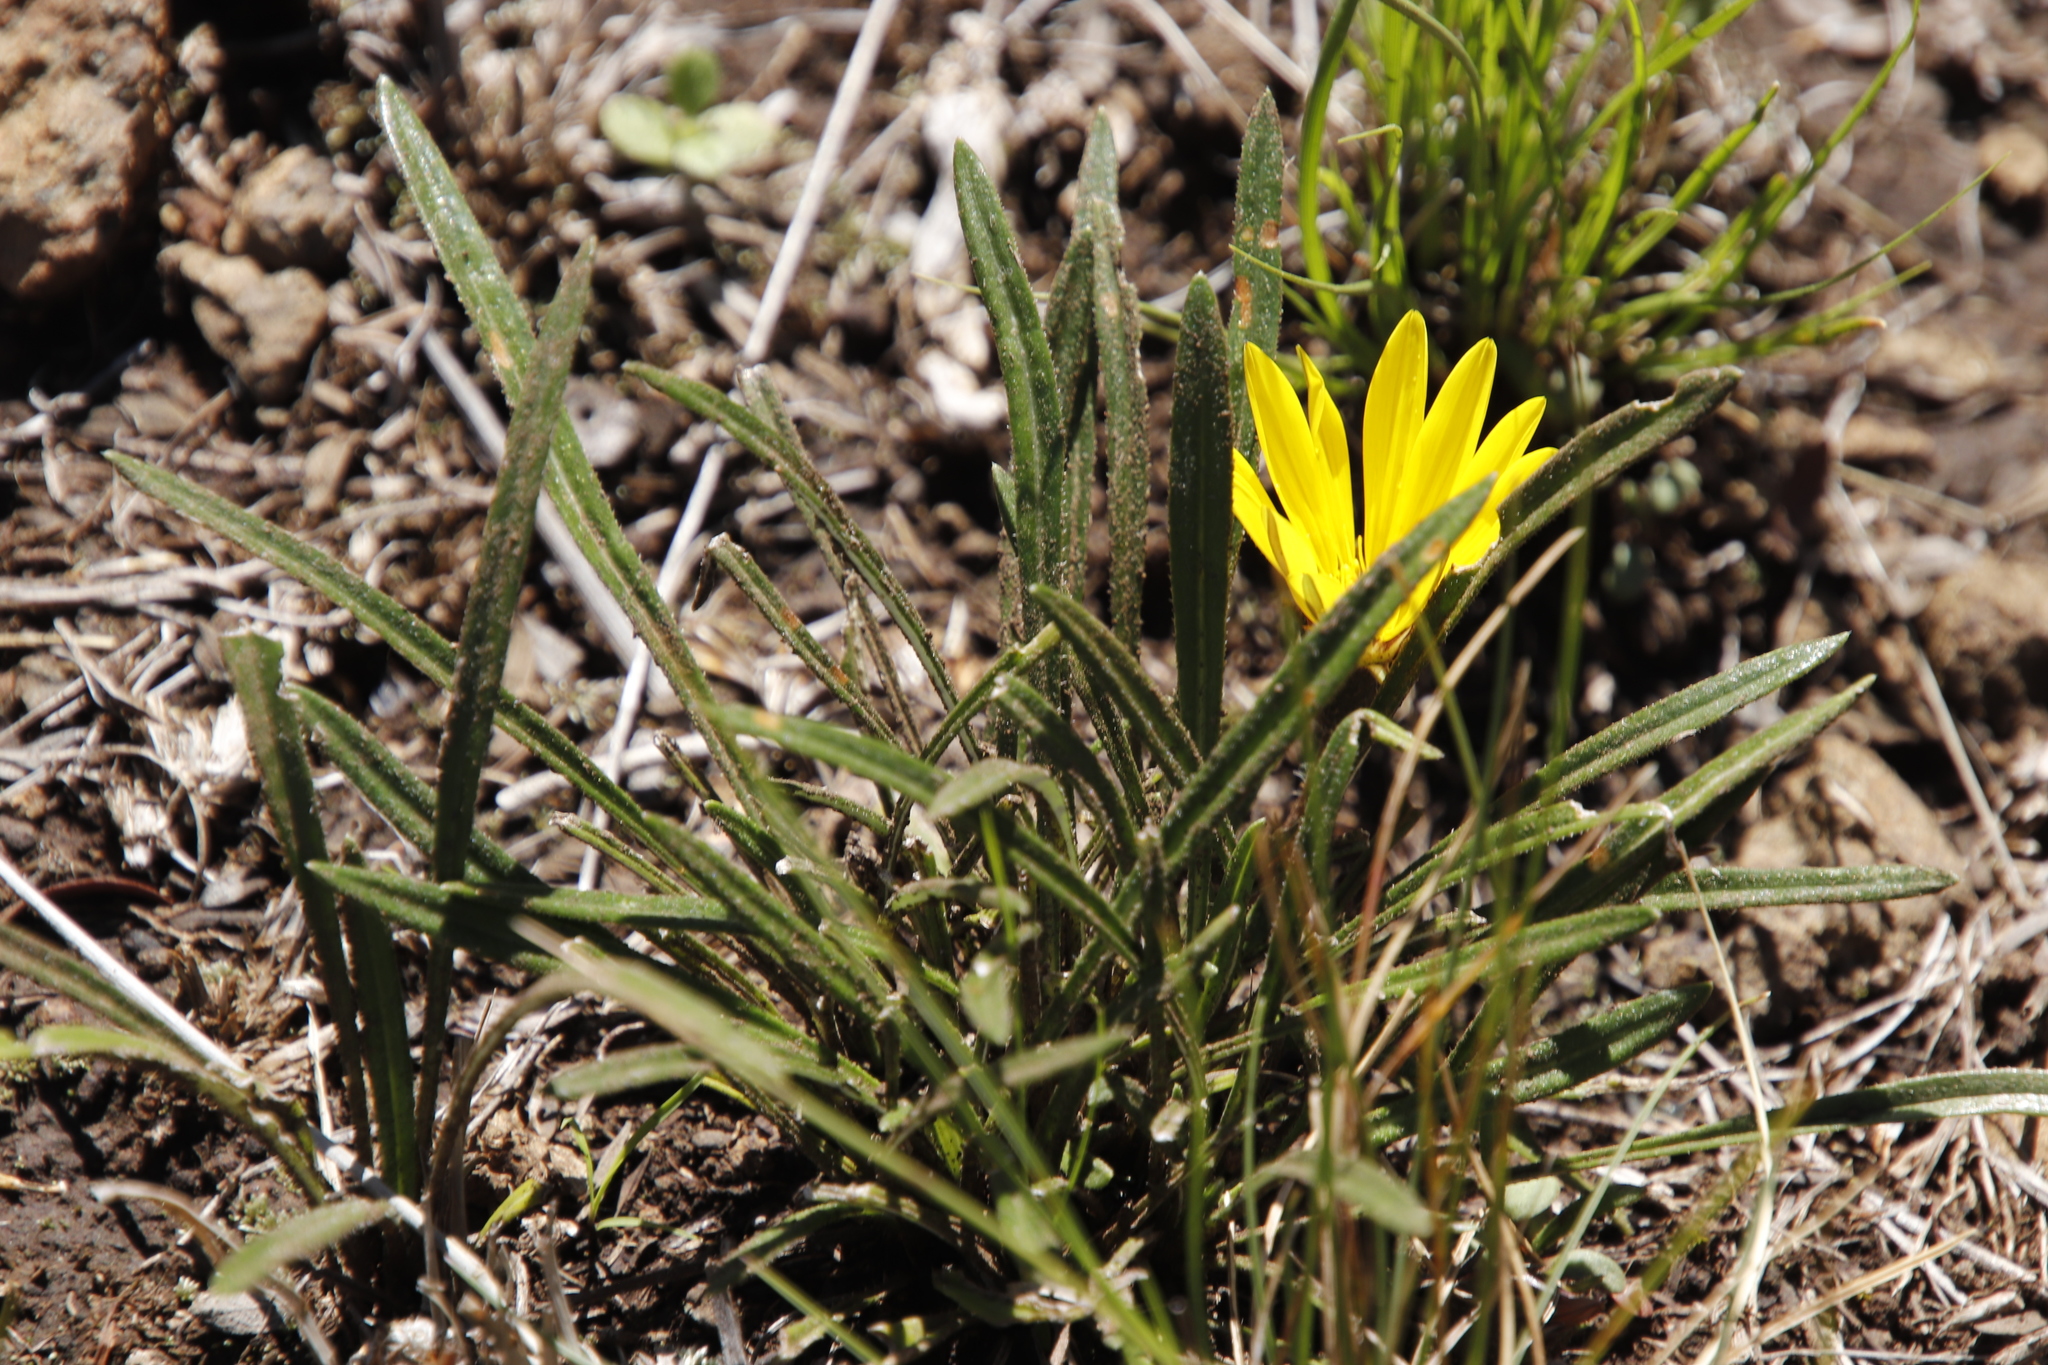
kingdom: Plantae
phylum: Tracheophyta
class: Magnoliopsida
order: Asterales
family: Asteraceae
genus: Gazania
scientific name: Gazania krebsiana
